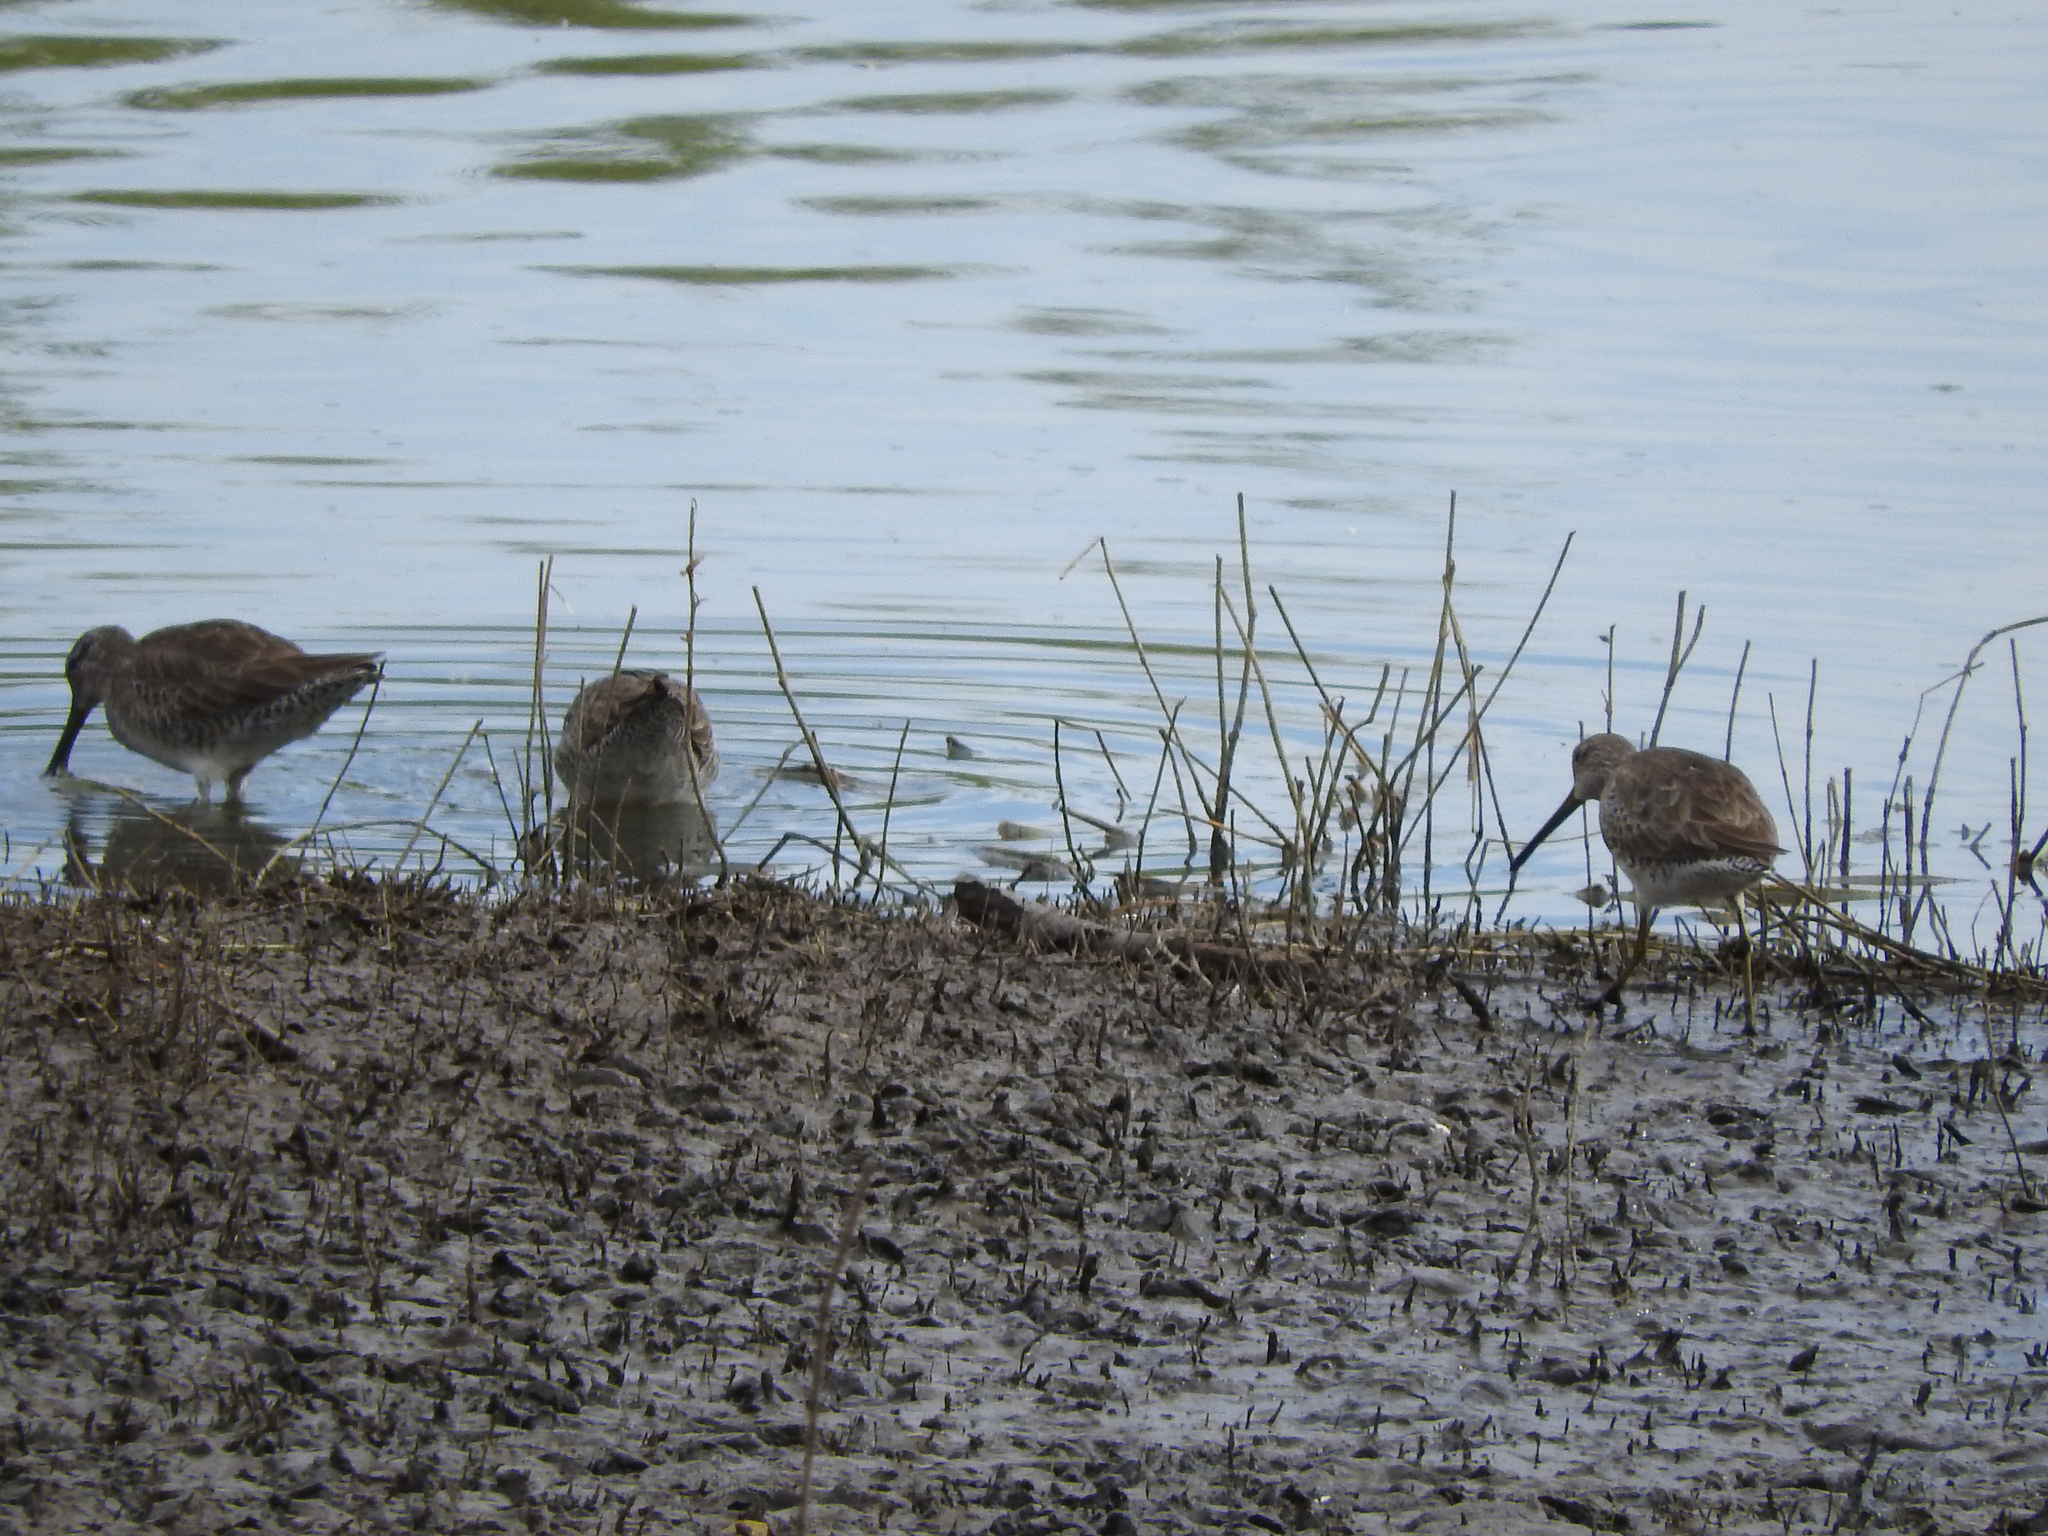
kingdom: Animalia
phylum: Chordata
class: Aves
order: Charadriiformes
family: Scolopacidae
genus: Limnodromus
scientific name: Limnodromus scolopaceus
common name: Long-billed dowitcher
